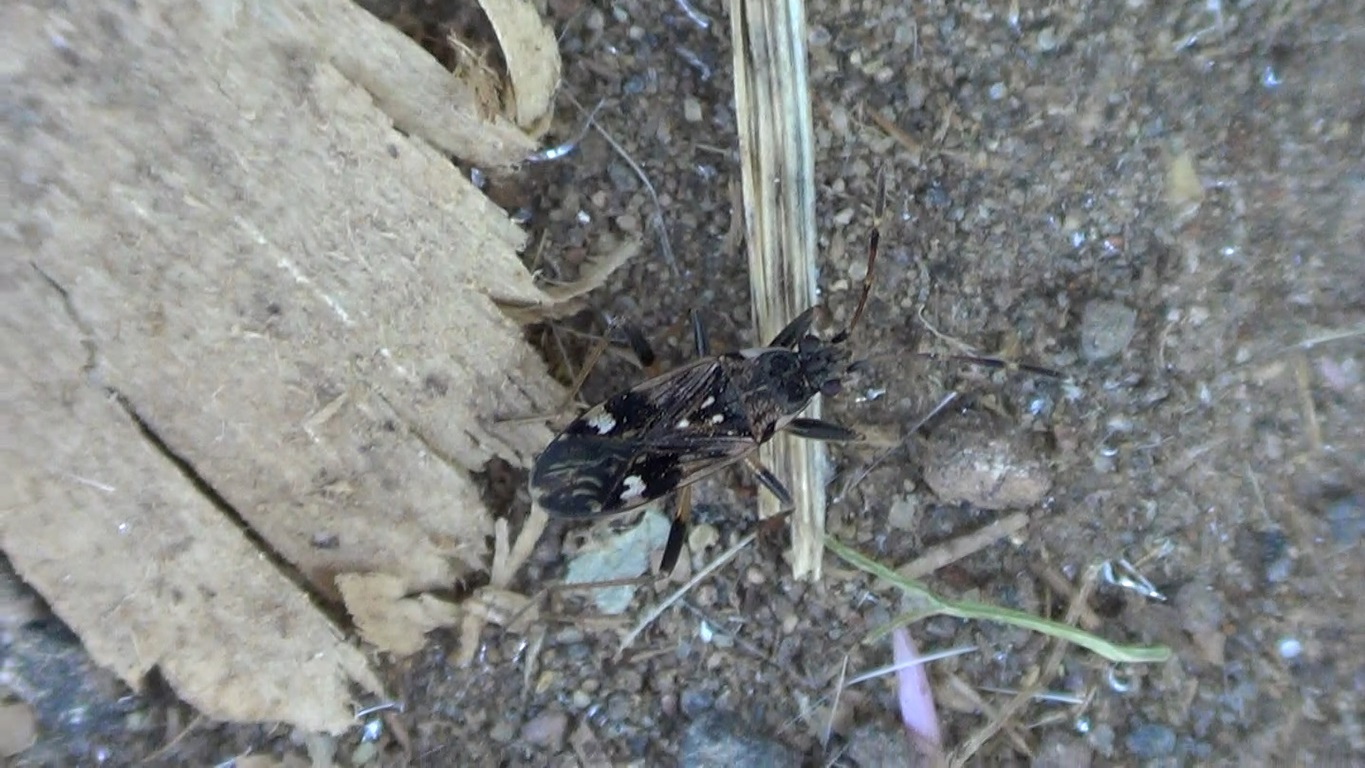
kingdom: Animalia
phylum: Arthropoda
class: Insecta
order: Hemiptera
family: Rhyparochromidae
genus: Beosus
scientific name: Beosus maritimus
